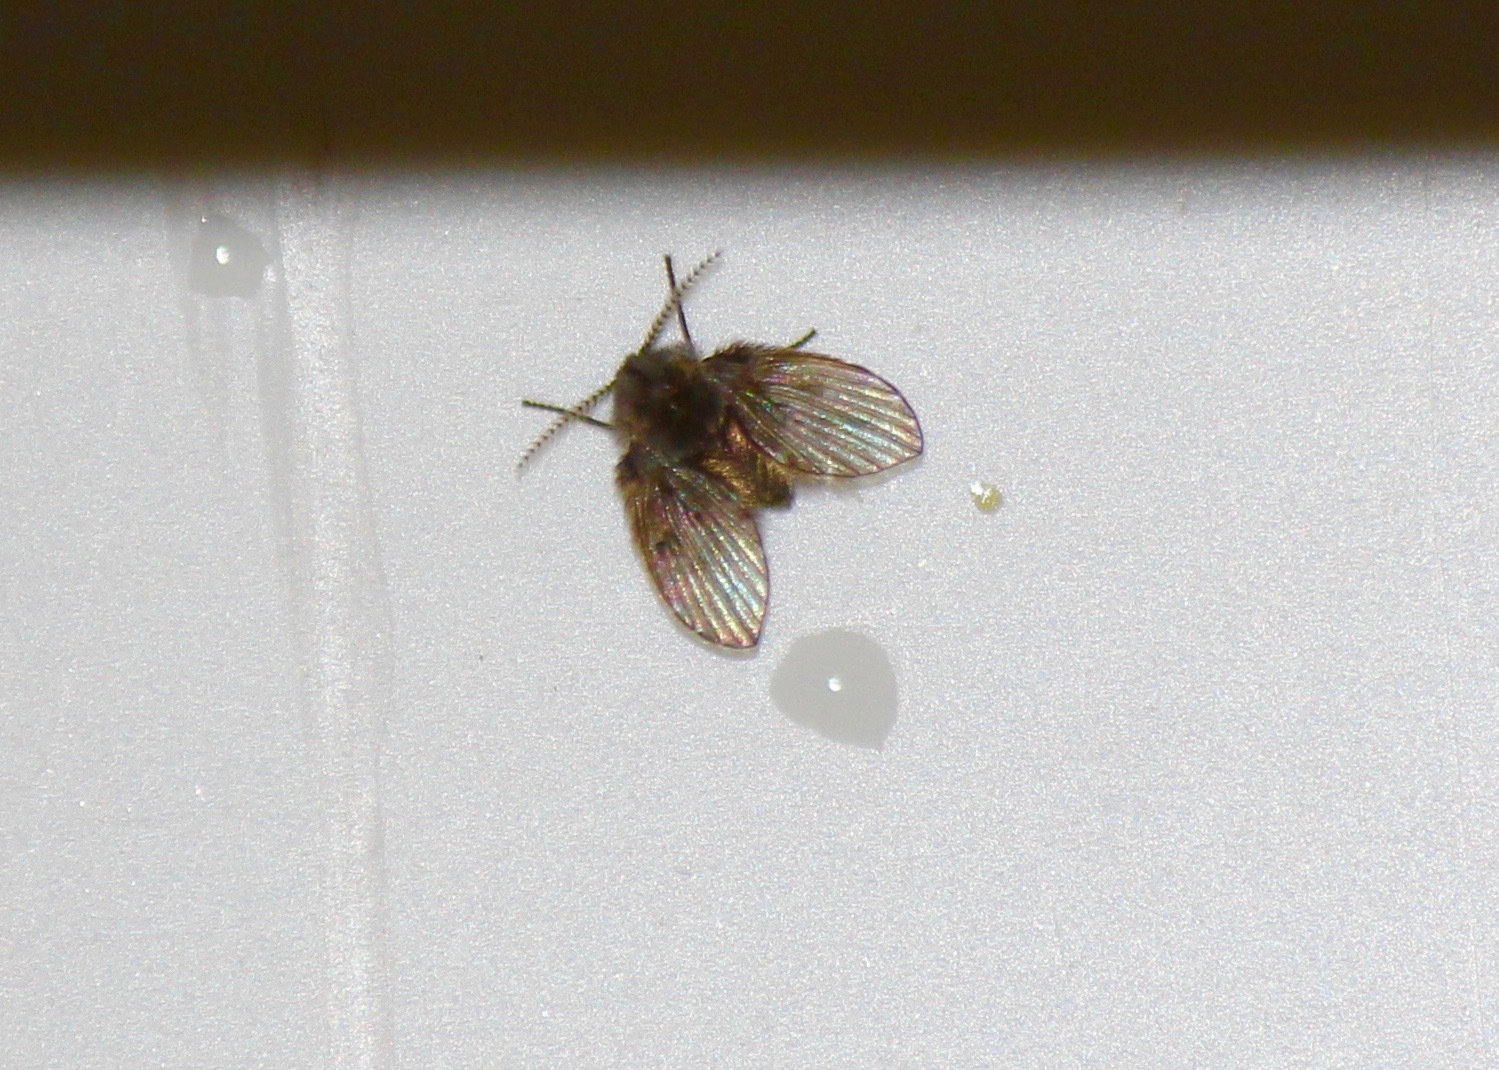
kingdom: Animalia
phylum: Arthropoda
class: Insecta
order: Diptera
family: Psychodidae
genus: Clogmia
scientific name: Clogmia albipunctatus
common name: White-spotted moth fly
